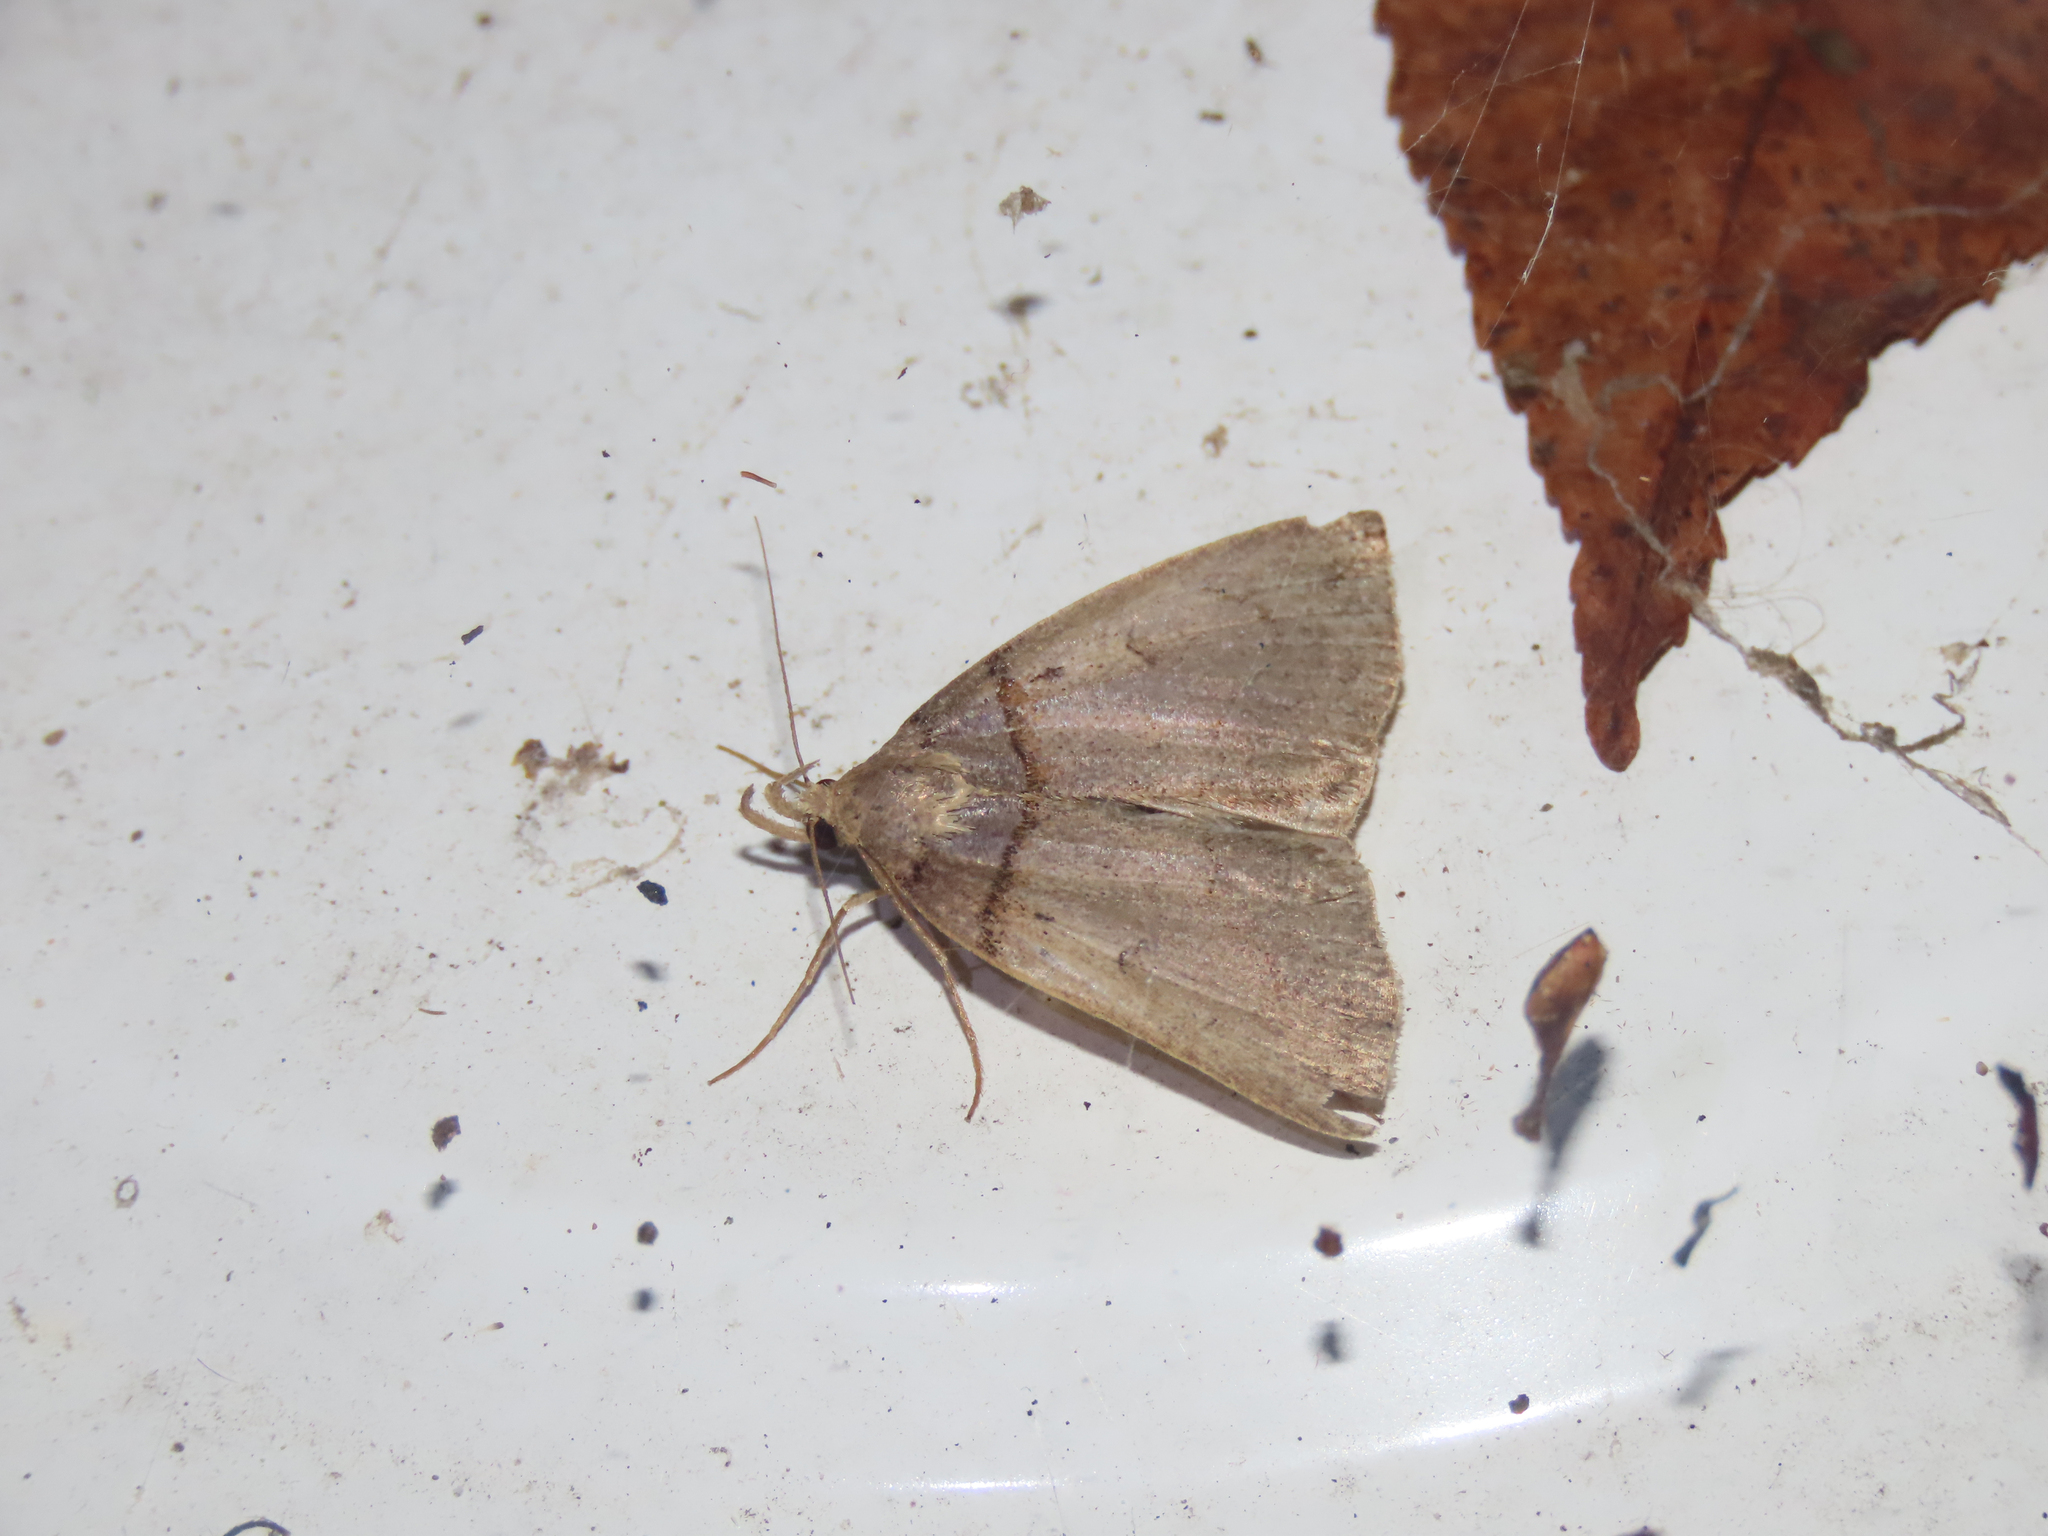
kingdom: Animalia
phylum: Arthropoda
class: Insecta
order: Lepidoptera
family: Erebidae
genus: Zanclognatha
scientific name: Zanclognatha laevigata
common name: Variable fan-foot
